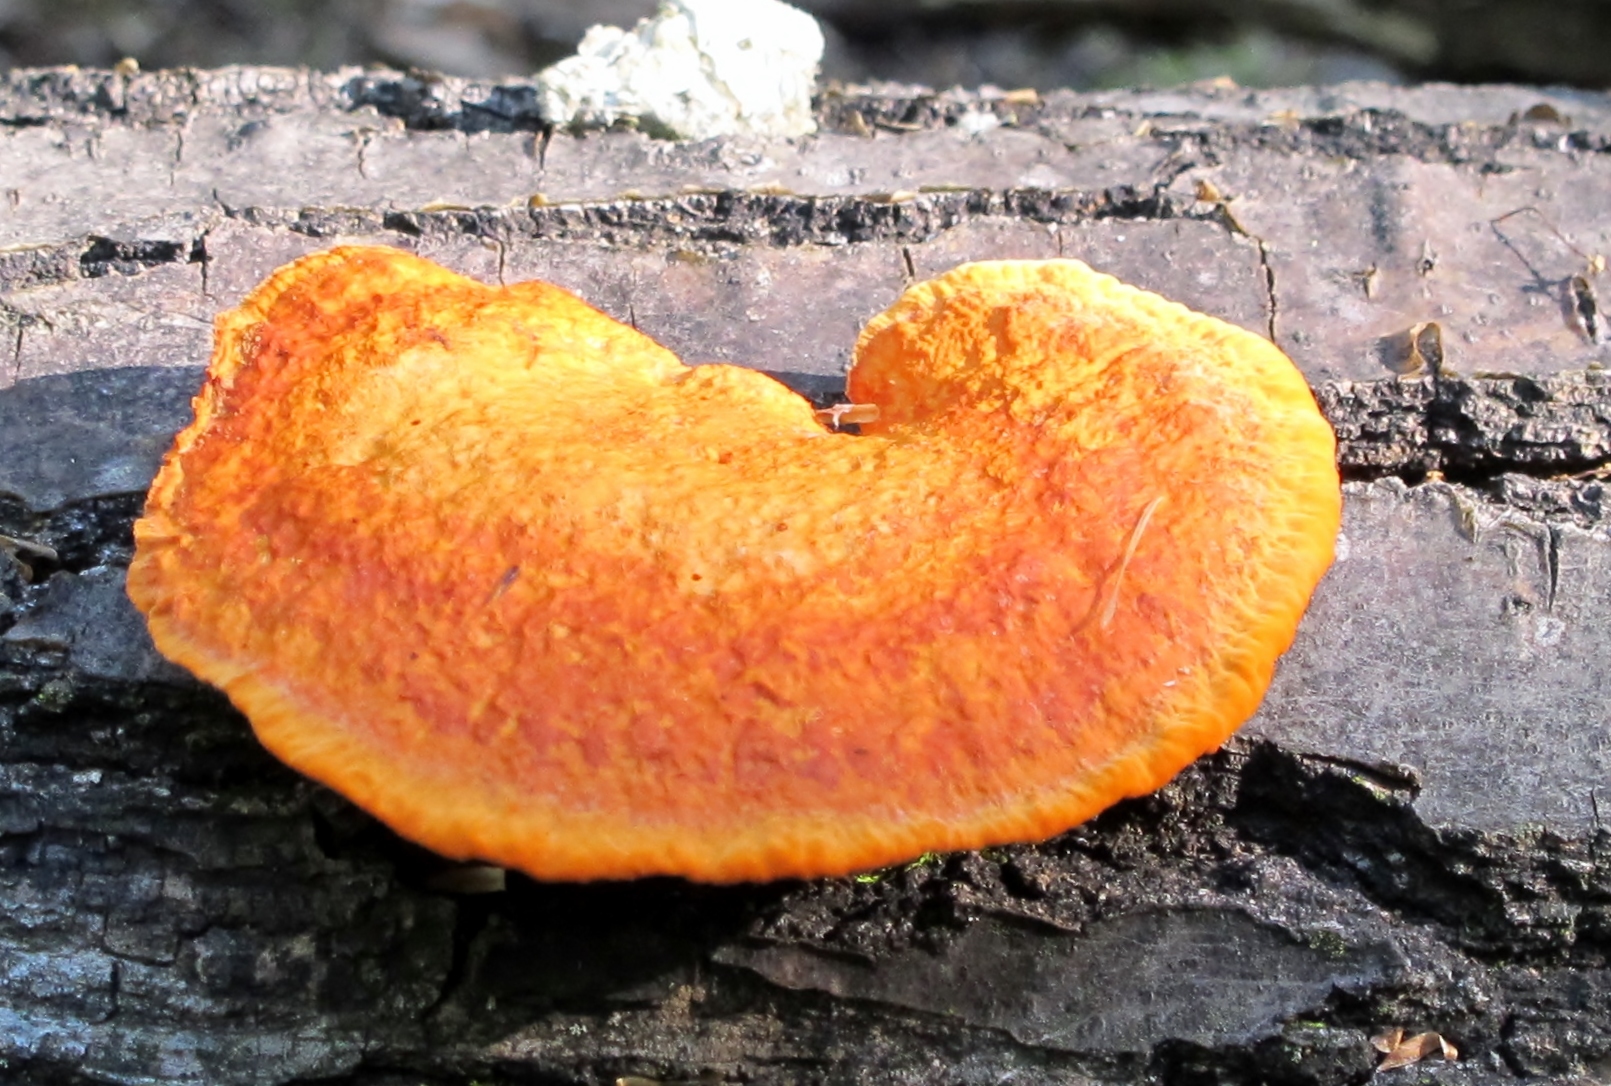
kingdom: Fungi
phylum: Basidiomycota
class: Agaricomycetes
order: Polyporales
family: Polyporaceae
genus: Trametes
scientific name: Trametes cinnabarina
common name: Northern cinnabar polypore
